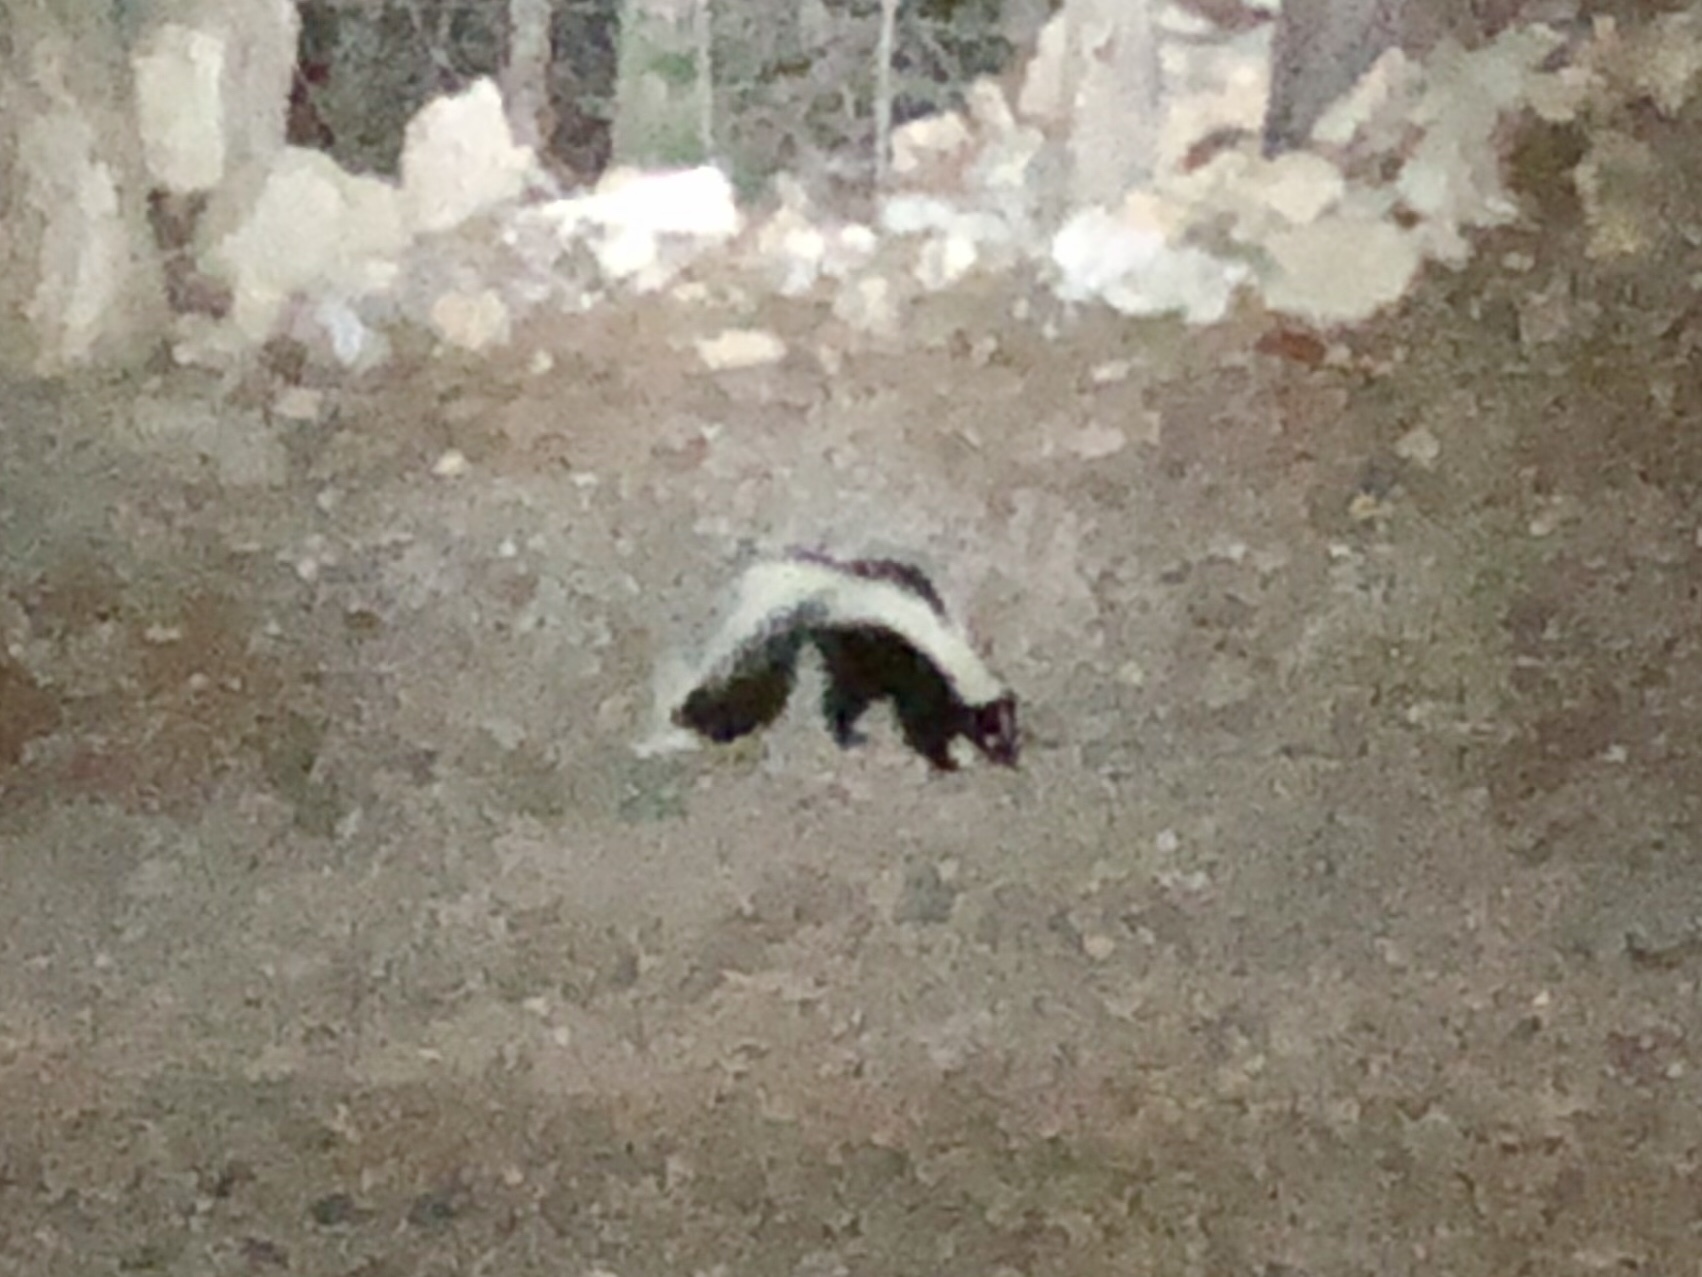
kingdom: Animalia
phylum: Chordata
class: Mammalia
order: Carnivora
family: Mephitidae
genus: Mephitis
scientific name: Mephitis mephitis
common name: Striped skunk
